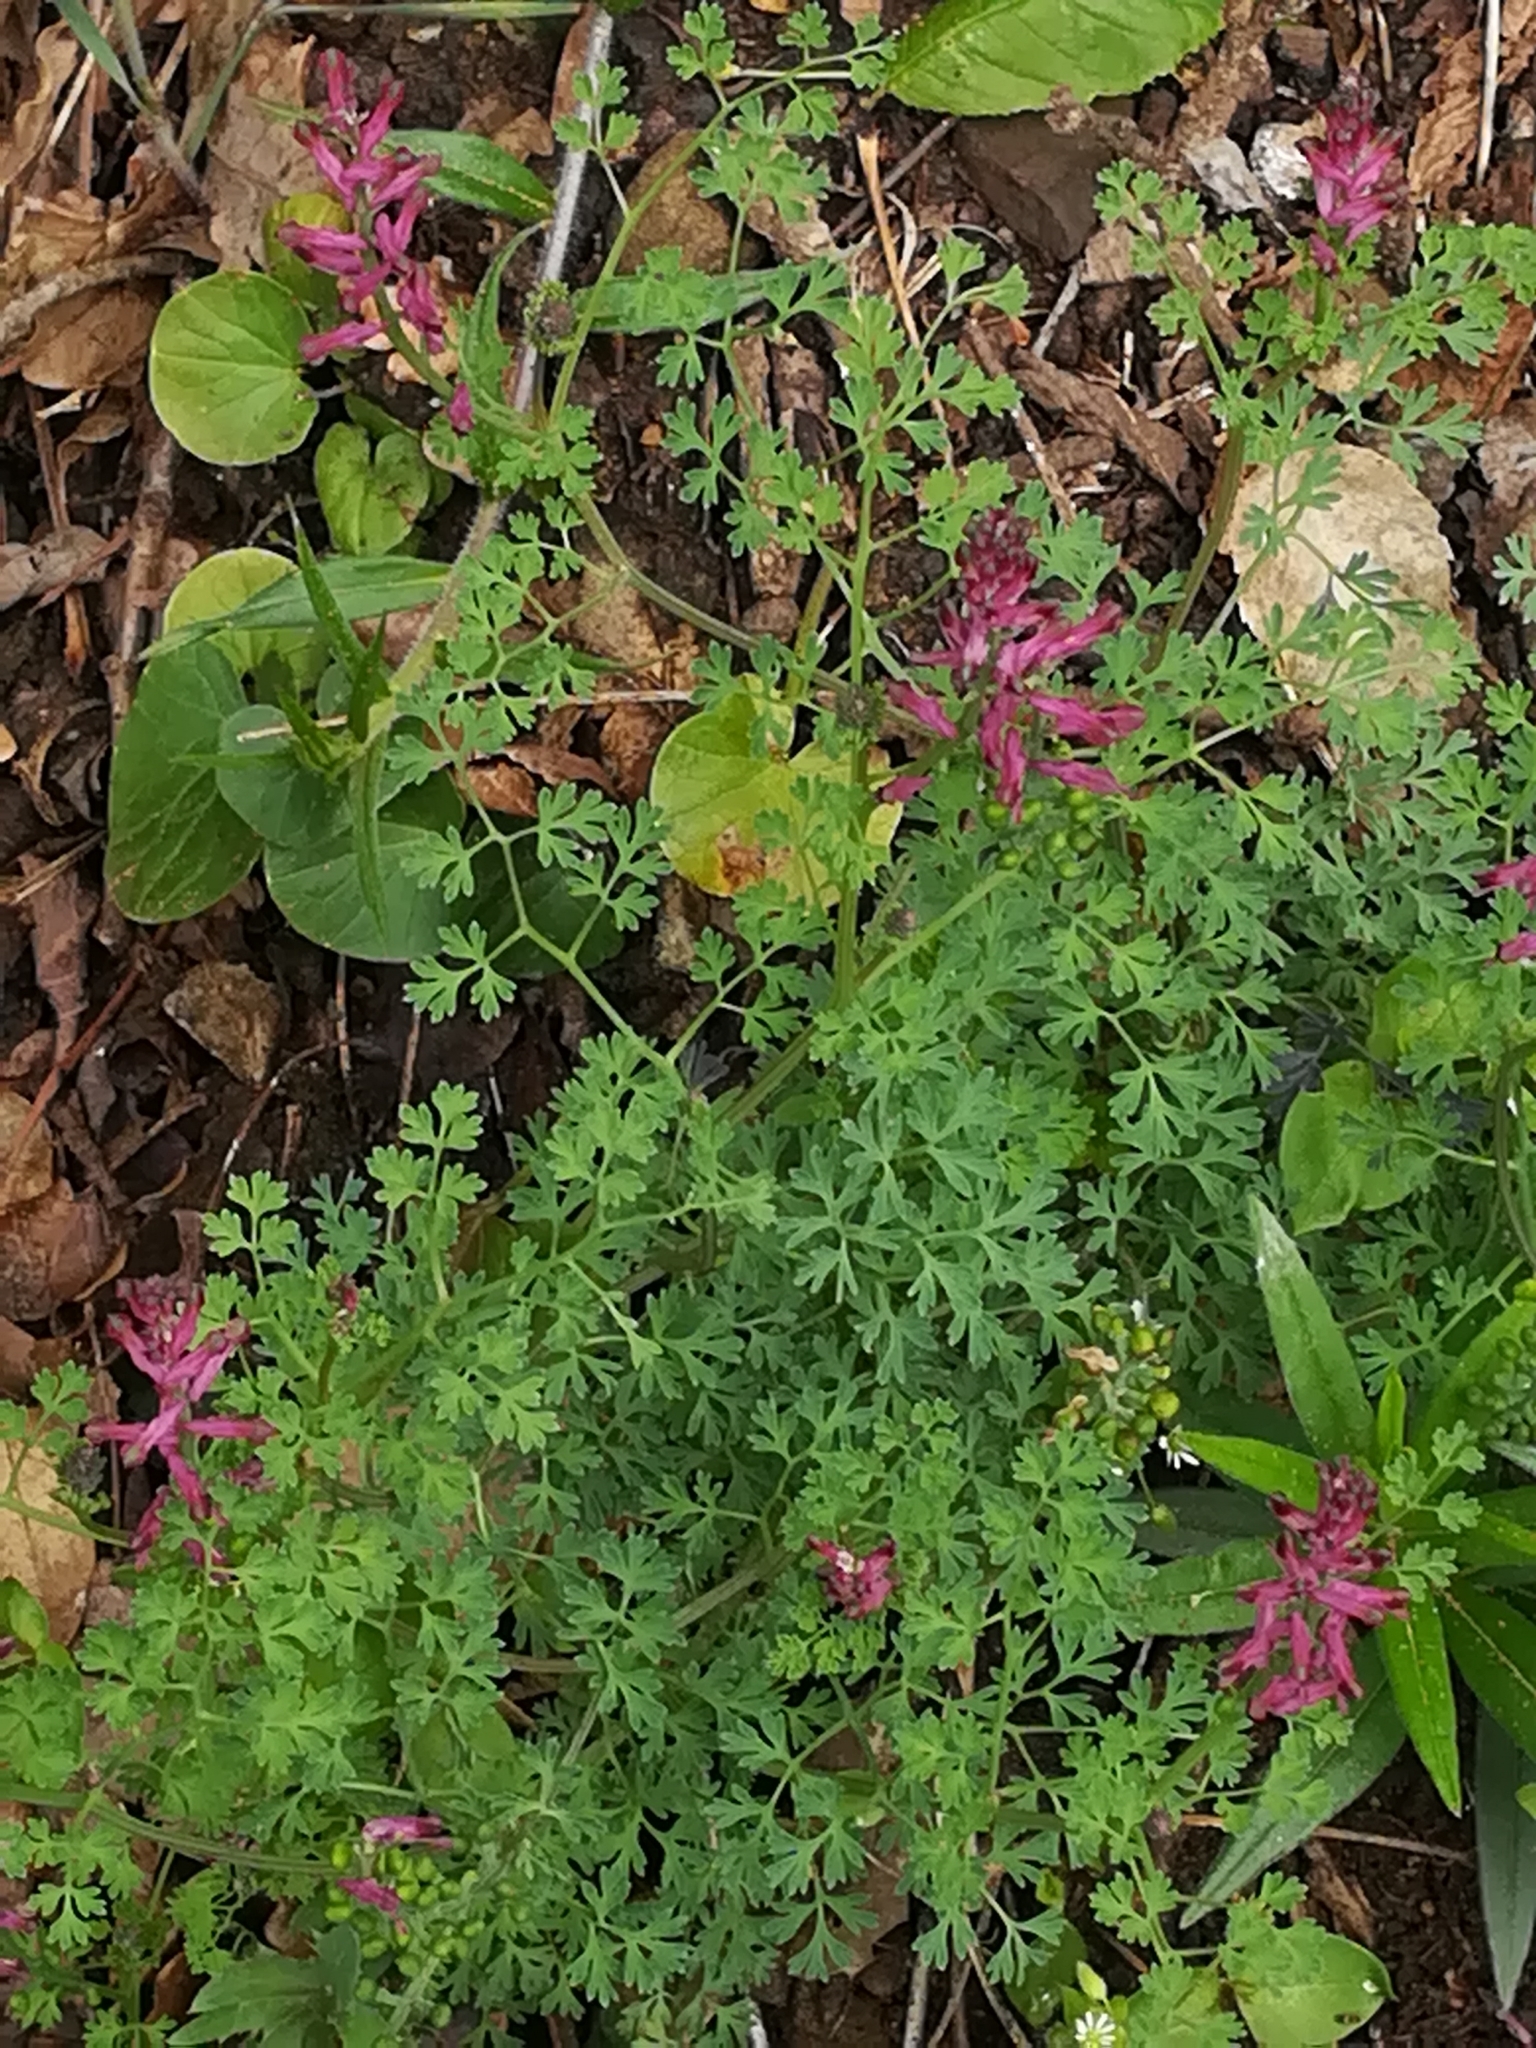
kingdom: Plantae
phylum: Tracheophyta
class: Magnoliopsida
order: Ranunculales
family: Papaveraceae
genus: Fumaria
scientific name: Fumaria officinalis
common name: Common fumitory
